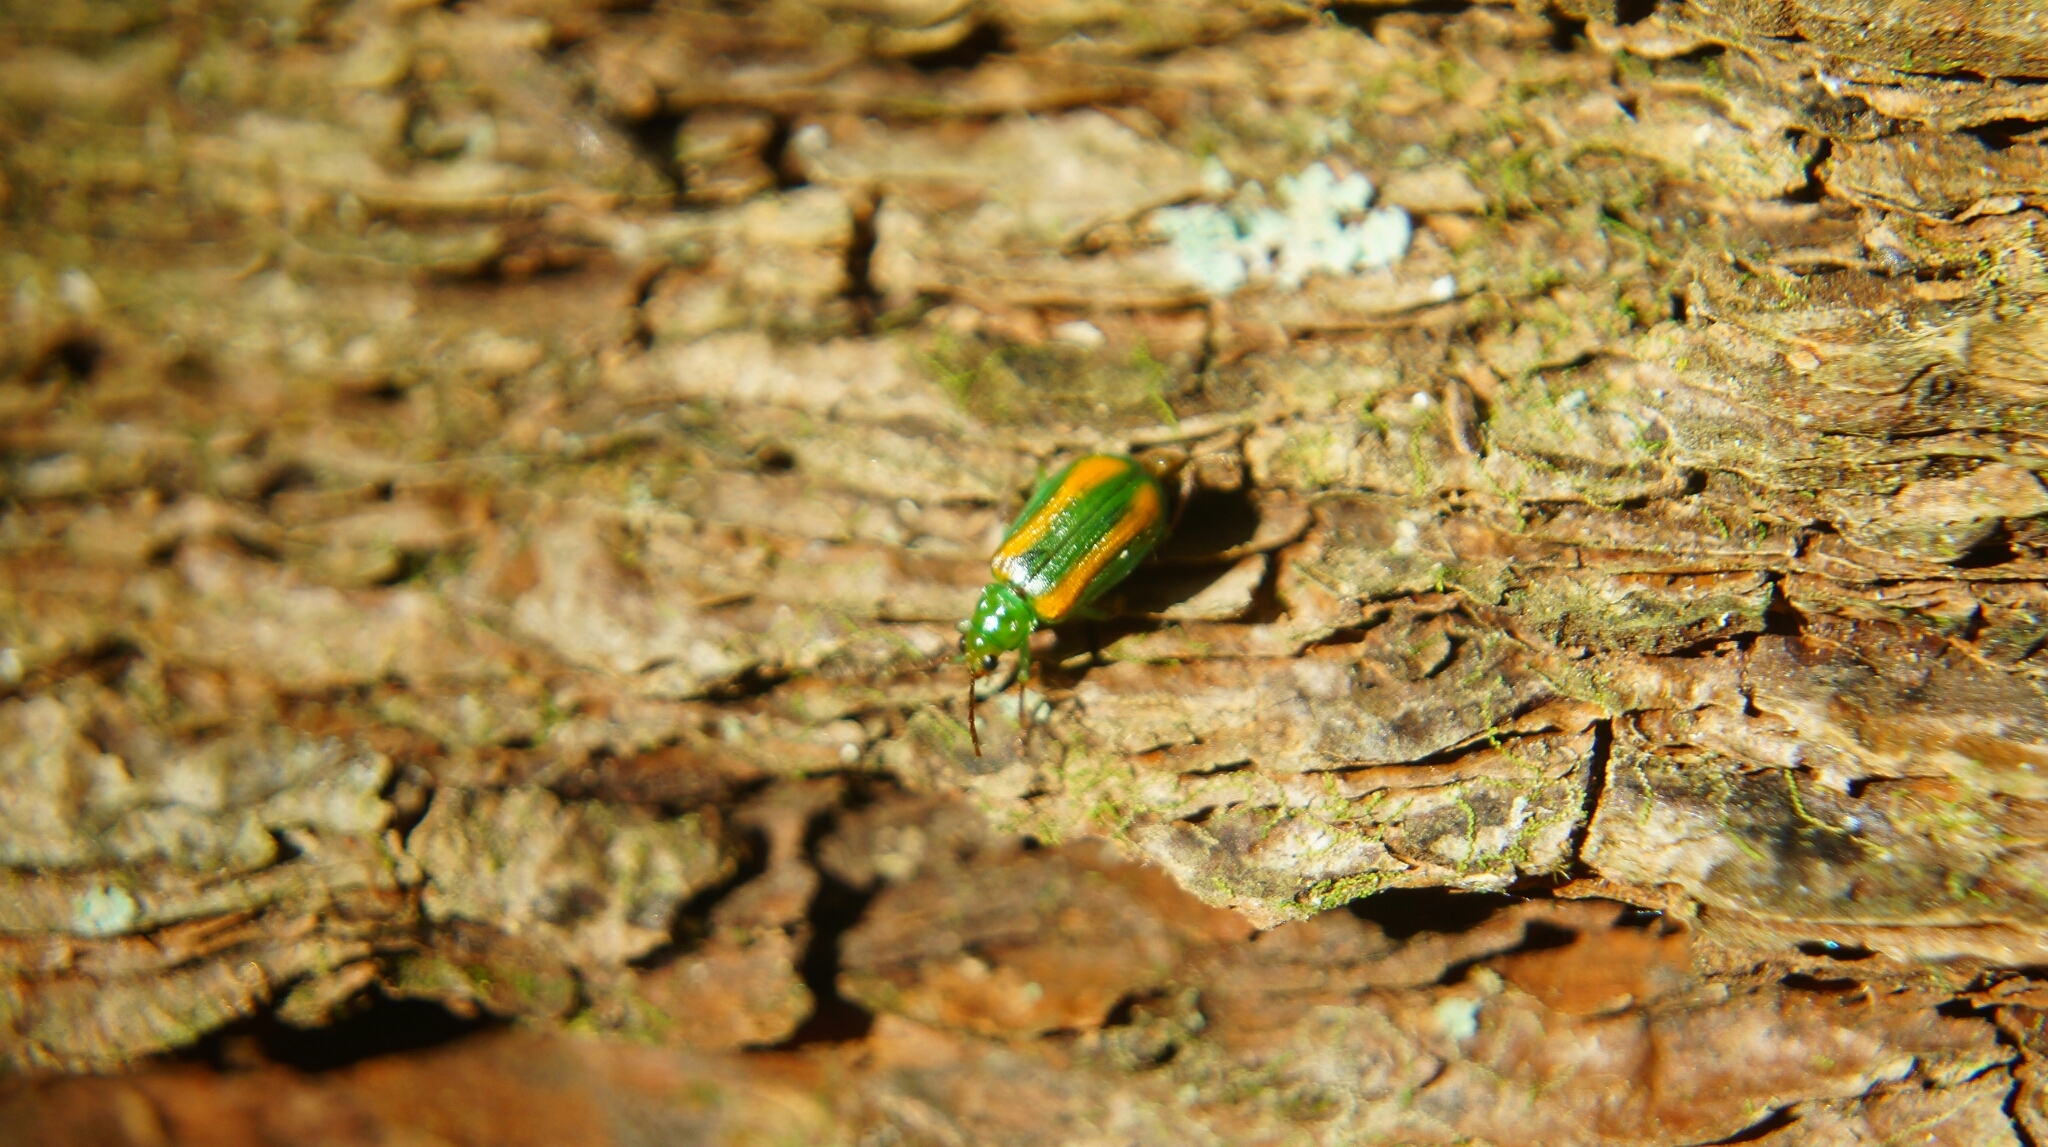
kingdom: Animalia
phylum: Arthropoda
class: Insecta
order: Coleoptera
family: Chrysomelidae
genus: Diabrotica
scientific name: Diabrotica porracea
